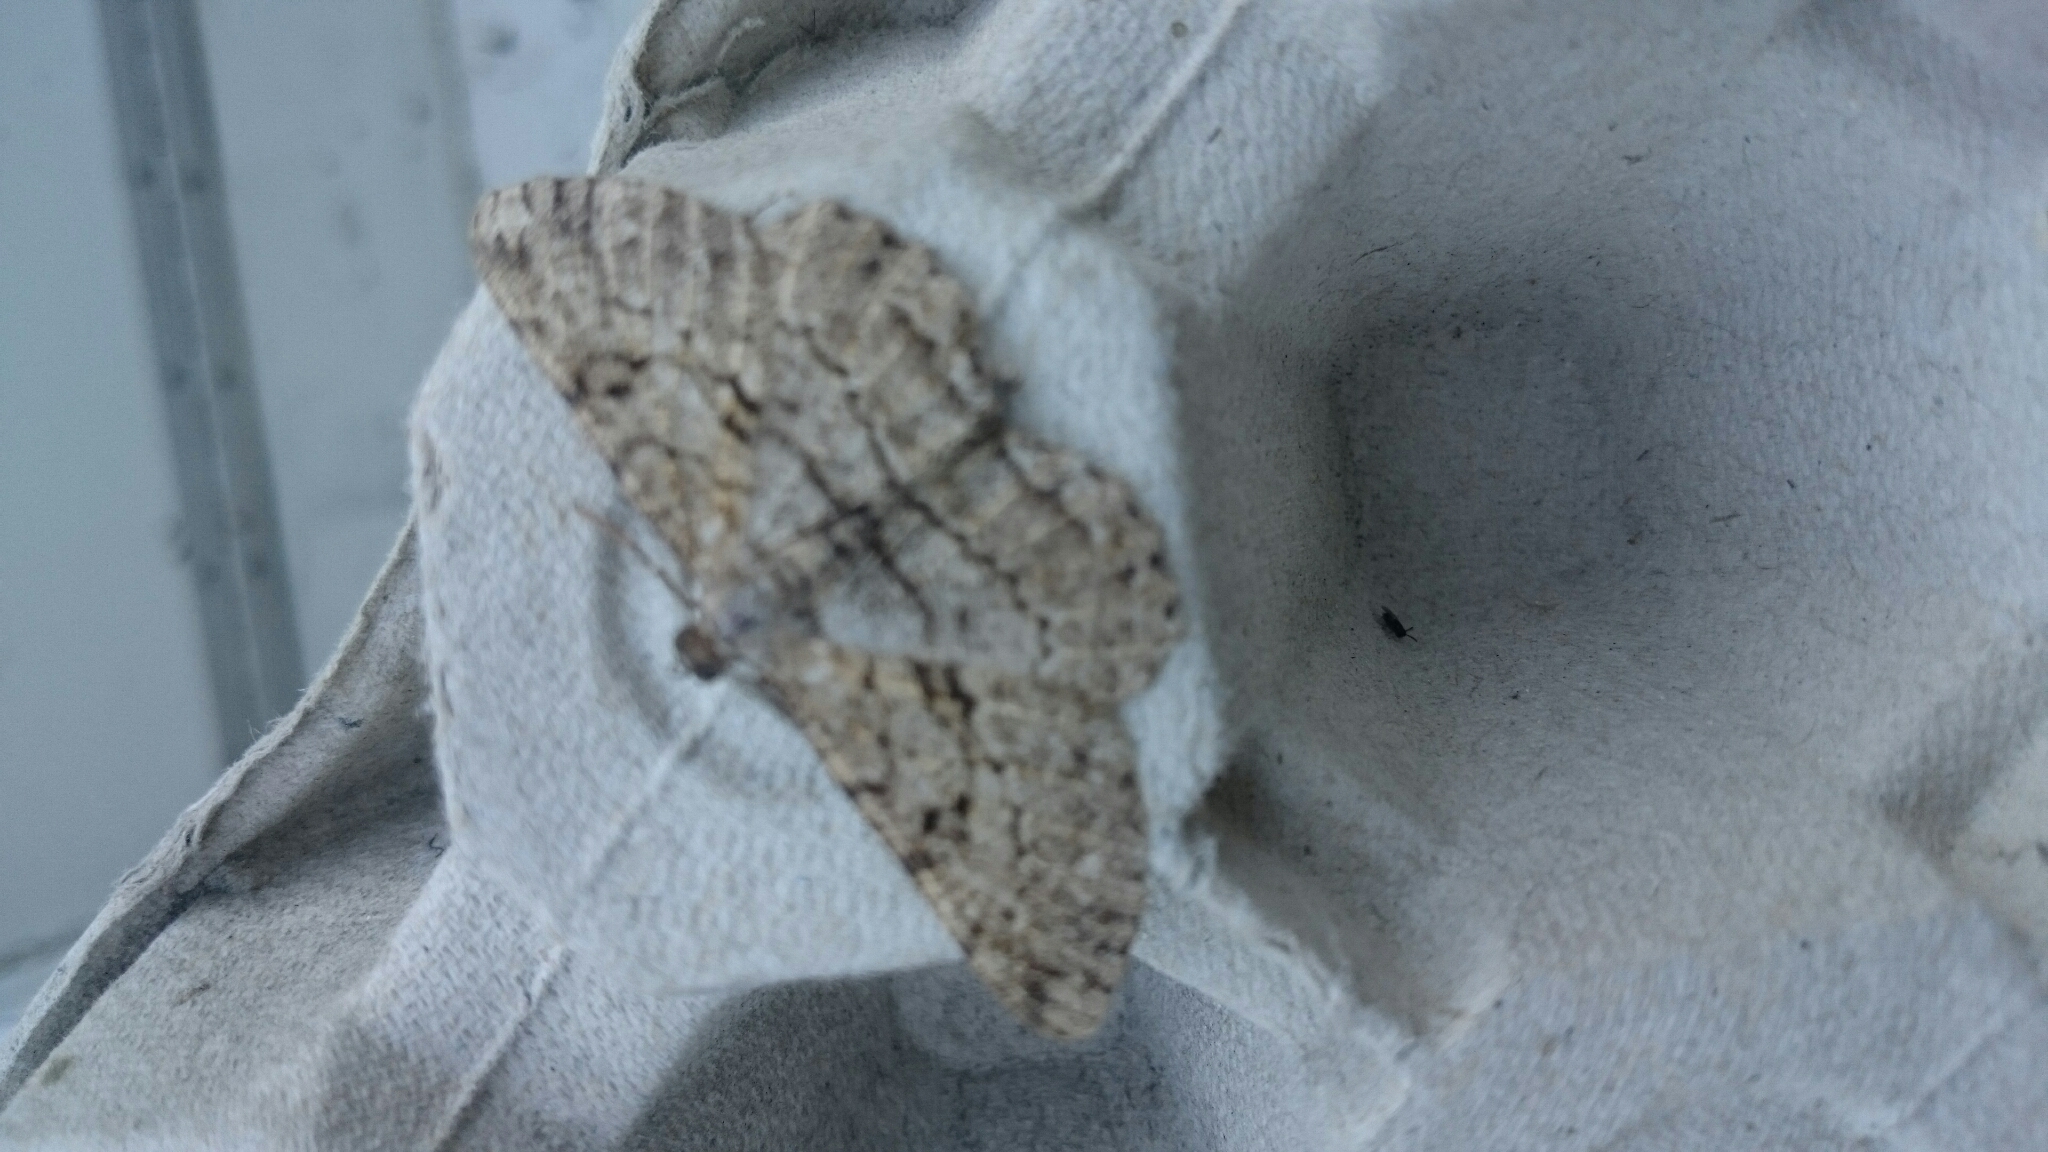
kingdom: Animalia
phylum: Arthropoda
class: Insecta
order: Lepidoptera
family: Geometridae
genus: Peribatodes
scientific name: Peribatodes rhomboidaria
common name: Willow beauty
